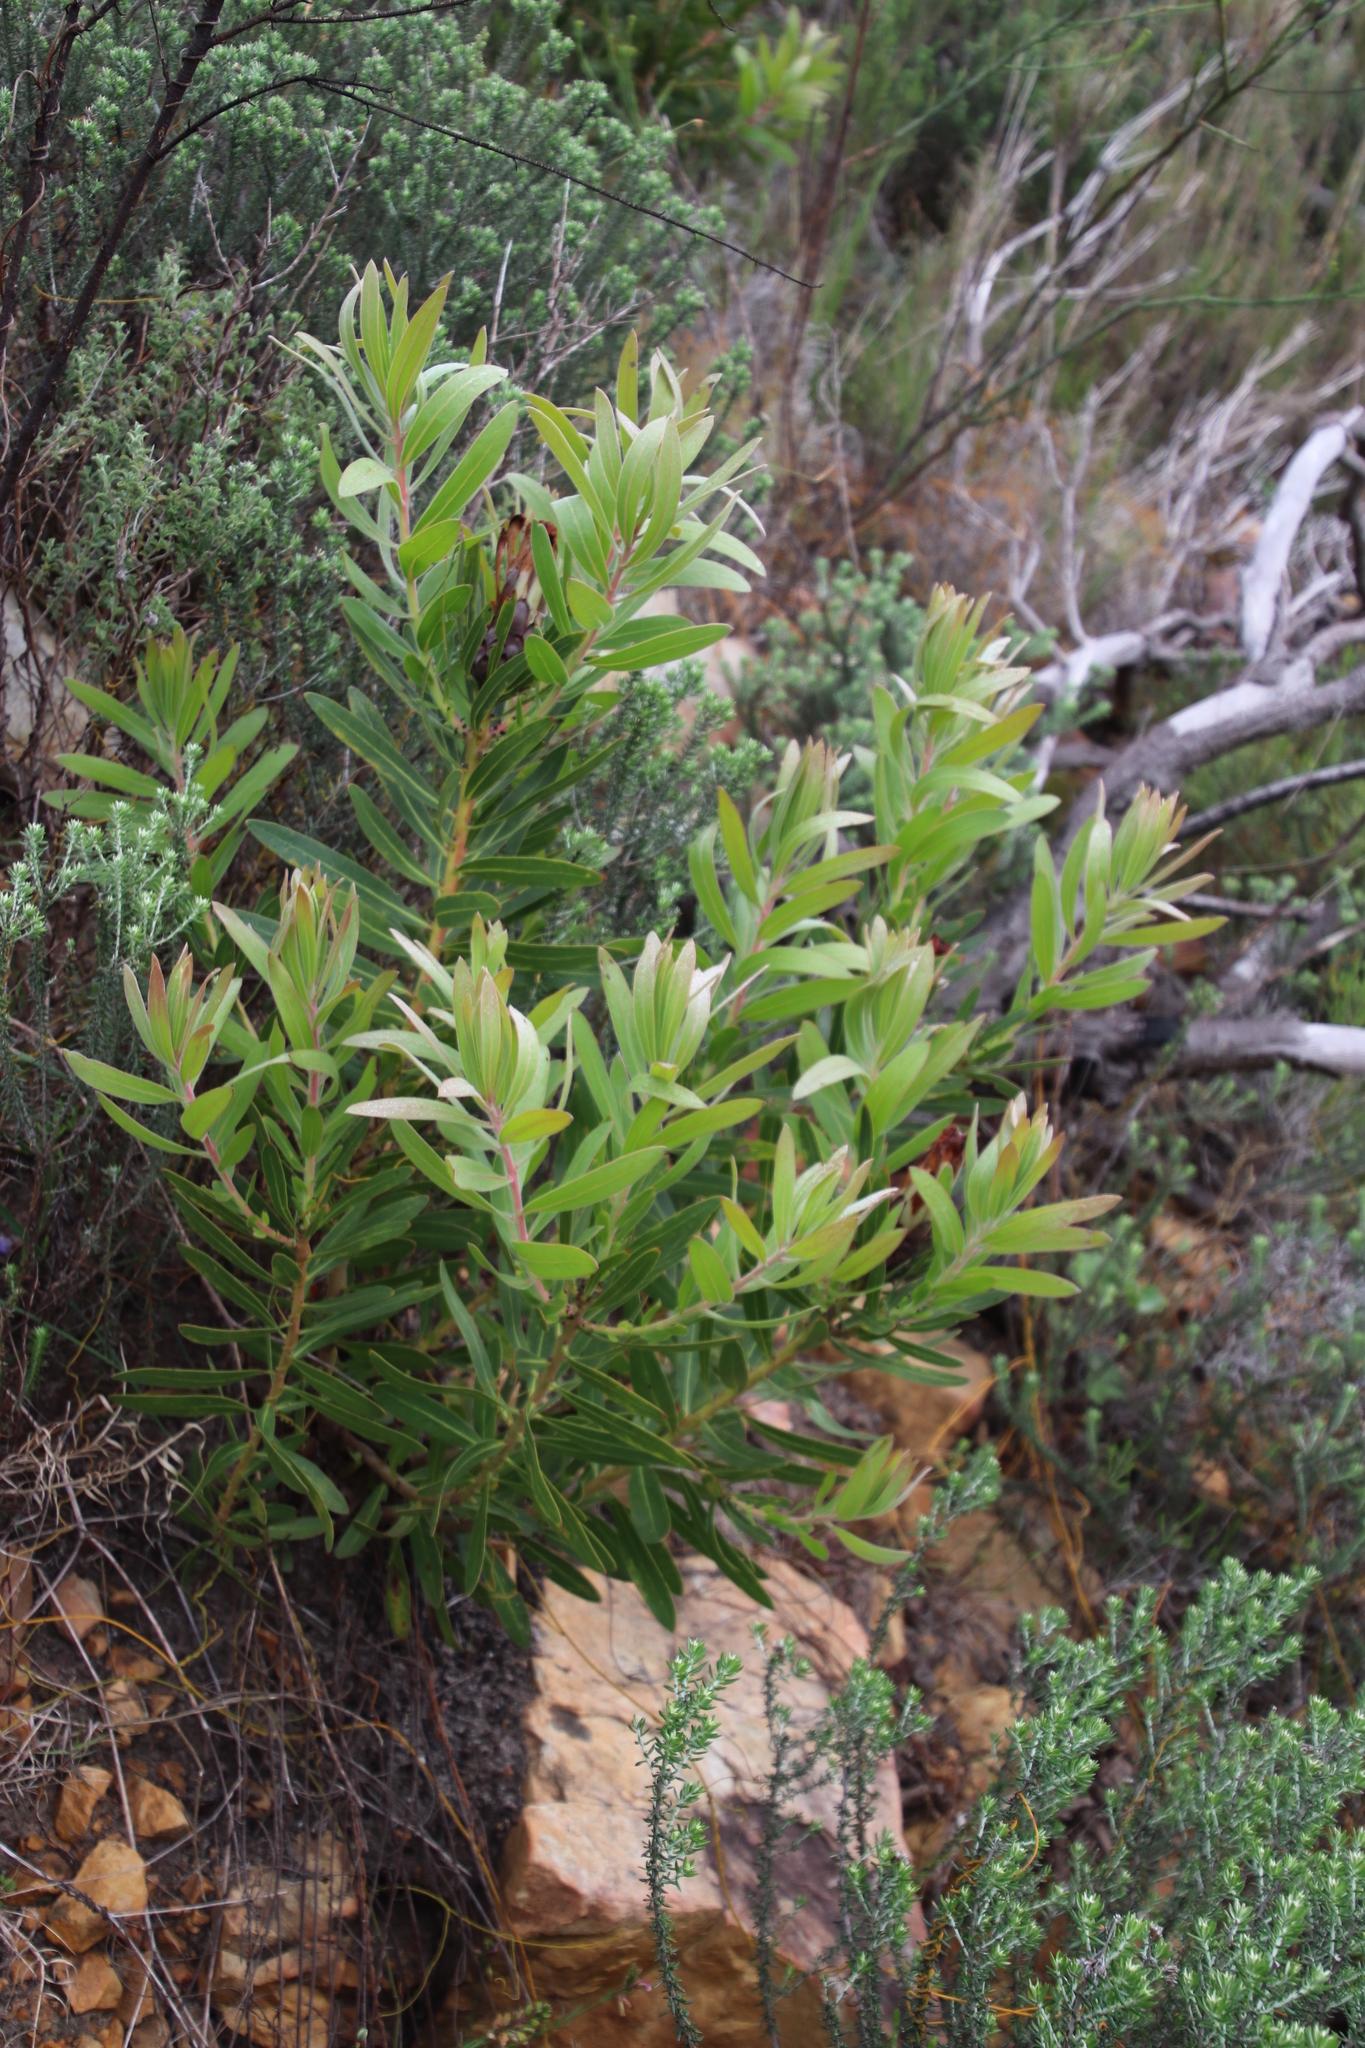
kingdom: Plantae
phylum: Tracheophyta
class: Magnoliopsida
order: Proteales
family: Proteaceae
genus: Protea
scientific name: Protea lepidocarpodendron
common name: Black-bearded protea
